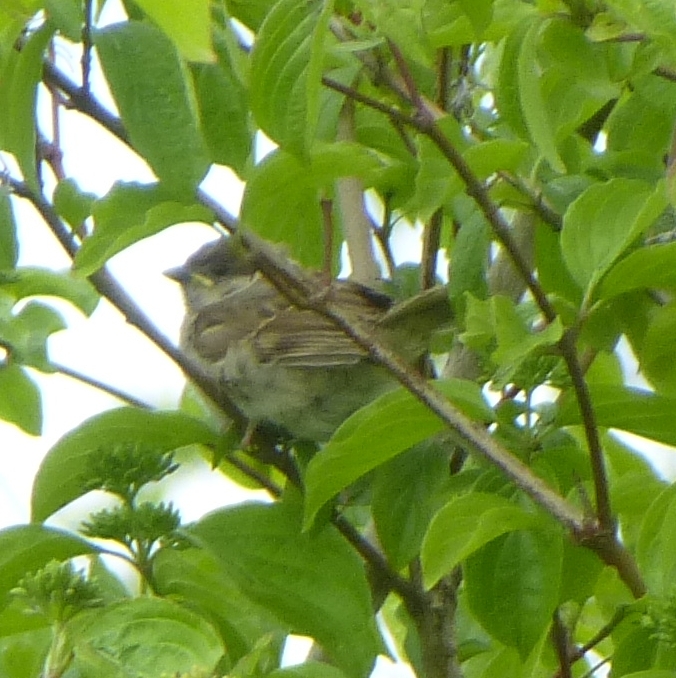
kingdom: Animalia
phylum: Chordata
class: Aves
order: Passeriformes
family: Passeridae
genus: Passer
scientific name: Passer domesticus
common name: House sparrow
